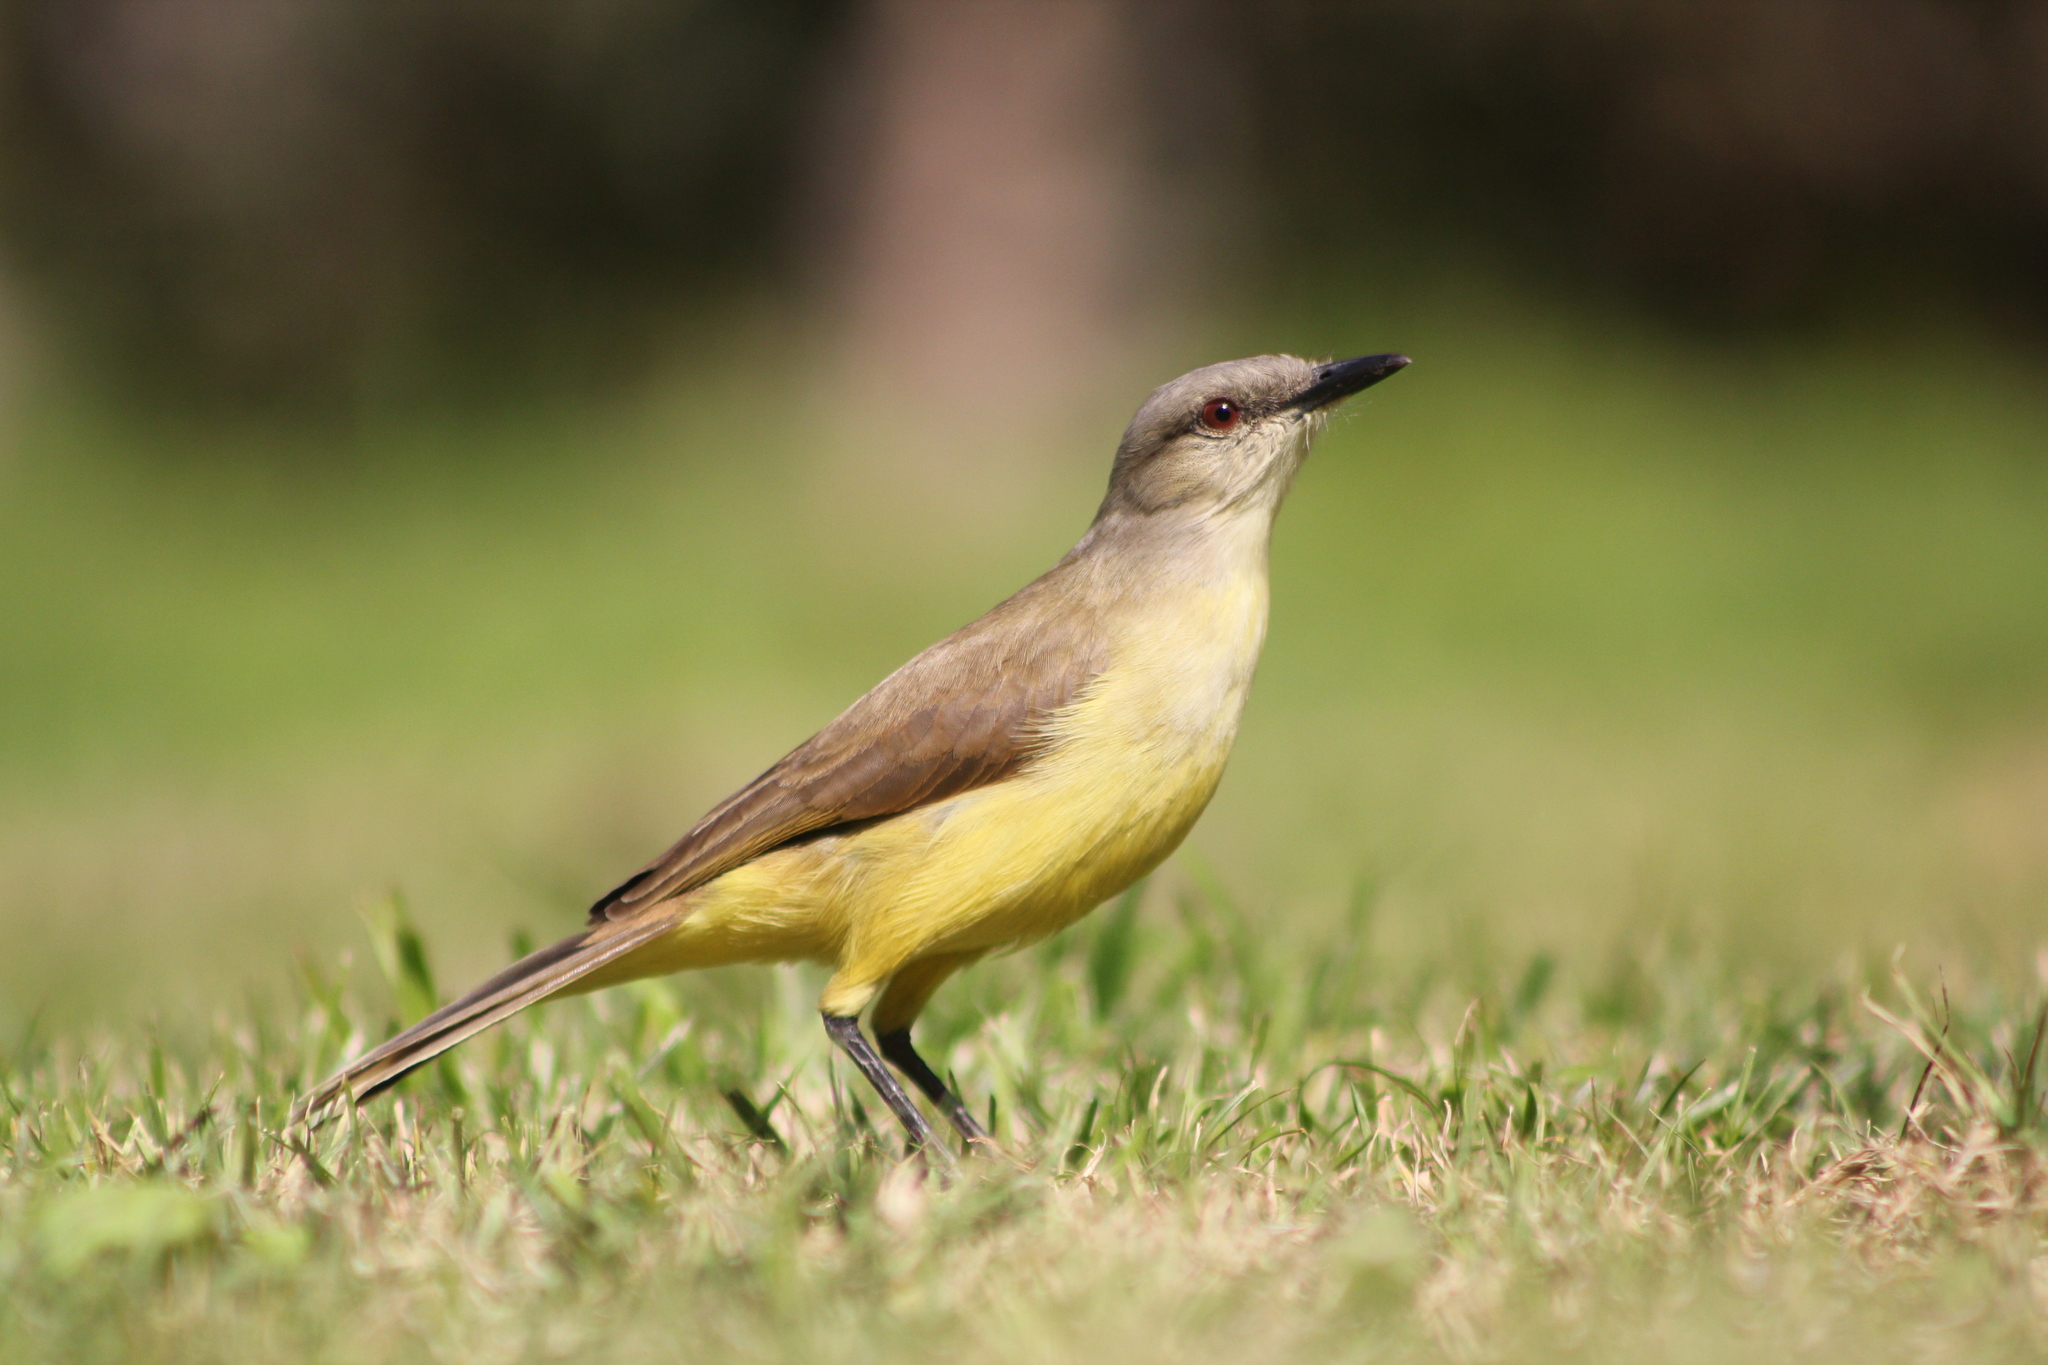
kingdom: Animalia
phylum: Chordata
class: Aves
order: Passeriformes
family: Tyrannidae
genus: Machetornis
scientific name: Machetornis rixosa
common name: Cattle tyrant
